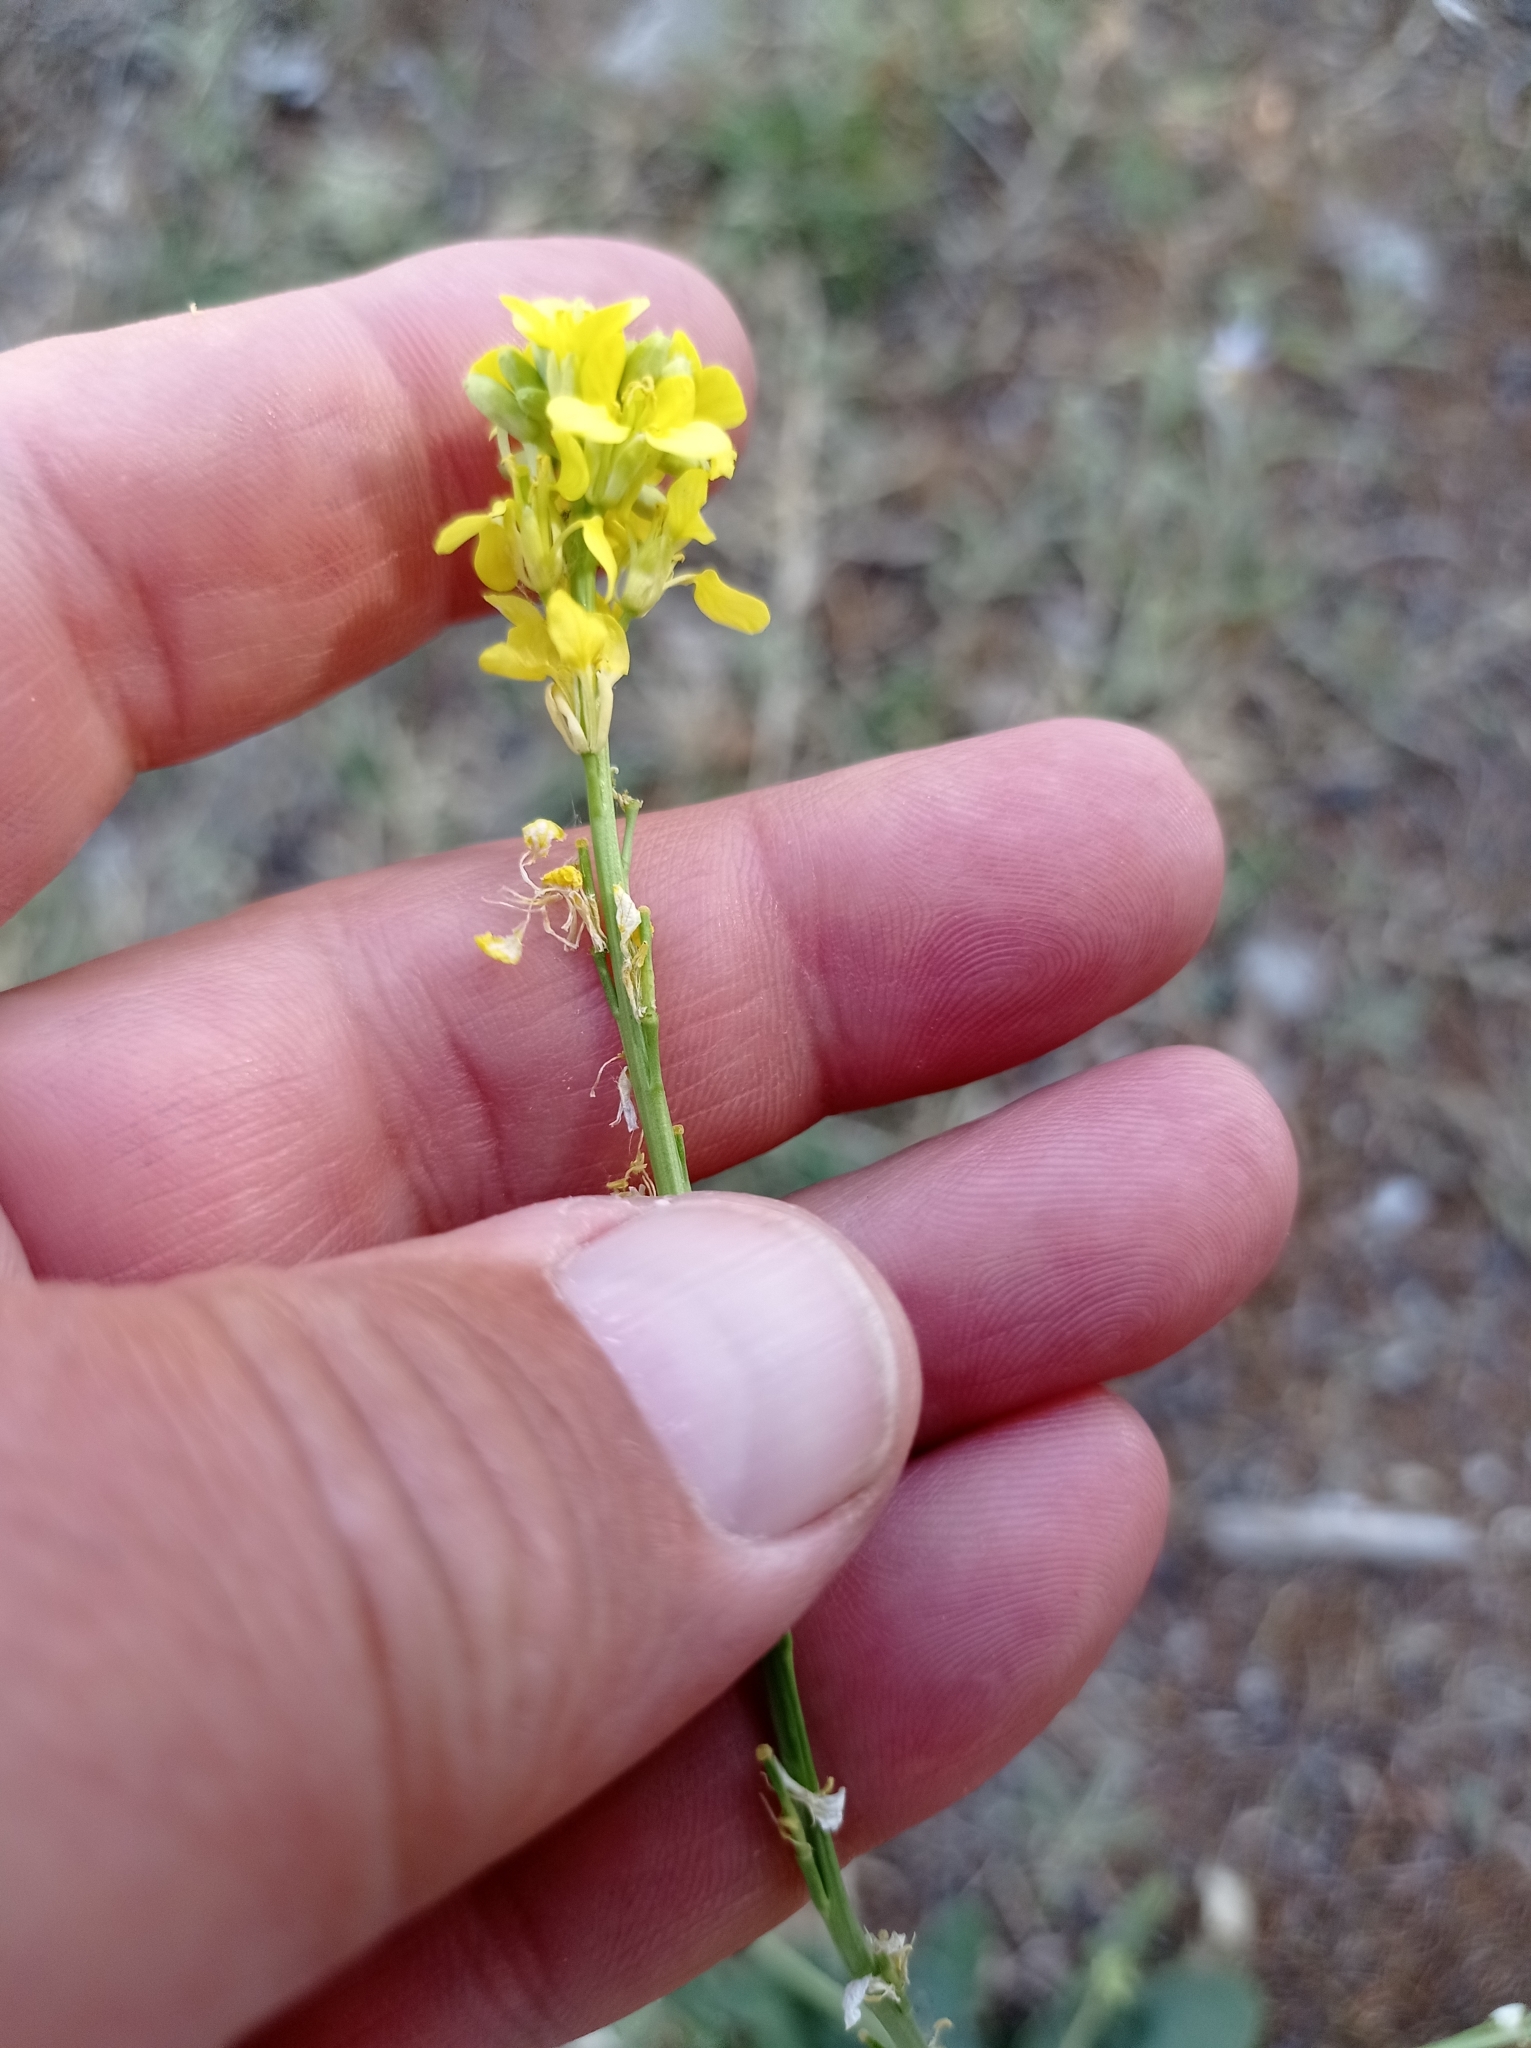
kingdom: Plantae
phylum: Tracheophyta
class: Magnoliopsida
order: Brassicales
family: Brassicaceae
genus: Hirschfeldia
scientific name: Hirschfeldia incana
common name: Hoary mustard
